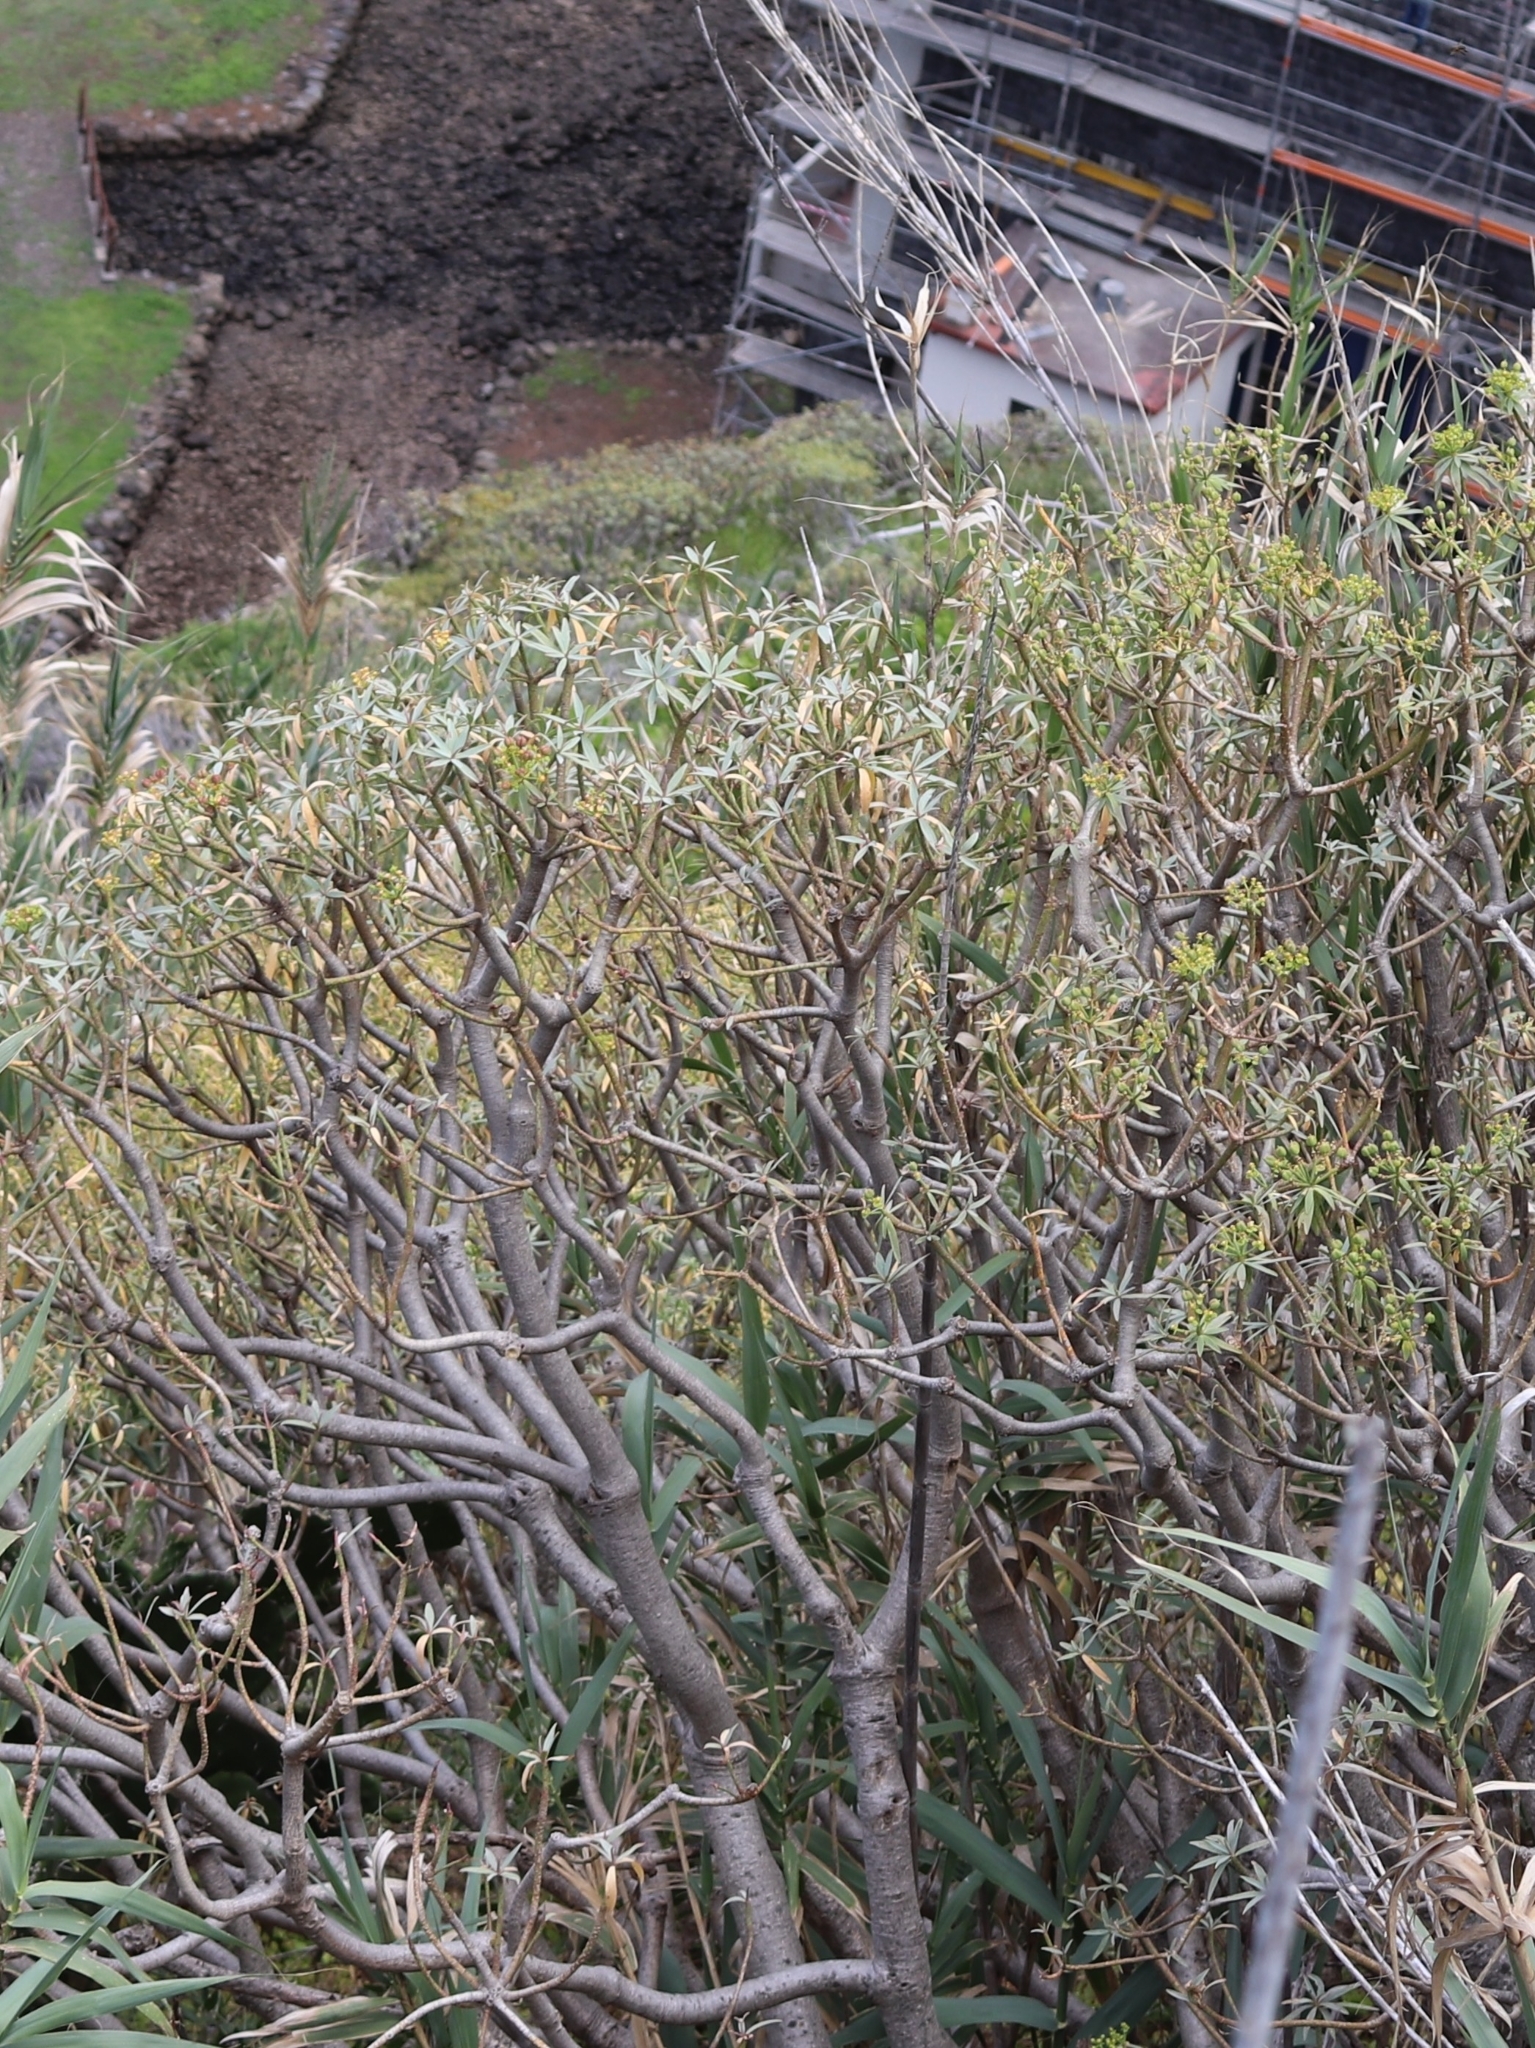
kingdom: Plantae
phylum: Tracheophyta
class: Magnoliopsida
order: Malpighiales
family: Euphorbiaceae
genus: Euphorbia
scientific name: Euphorbia piscatoria
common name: Fish-stunning spurge
